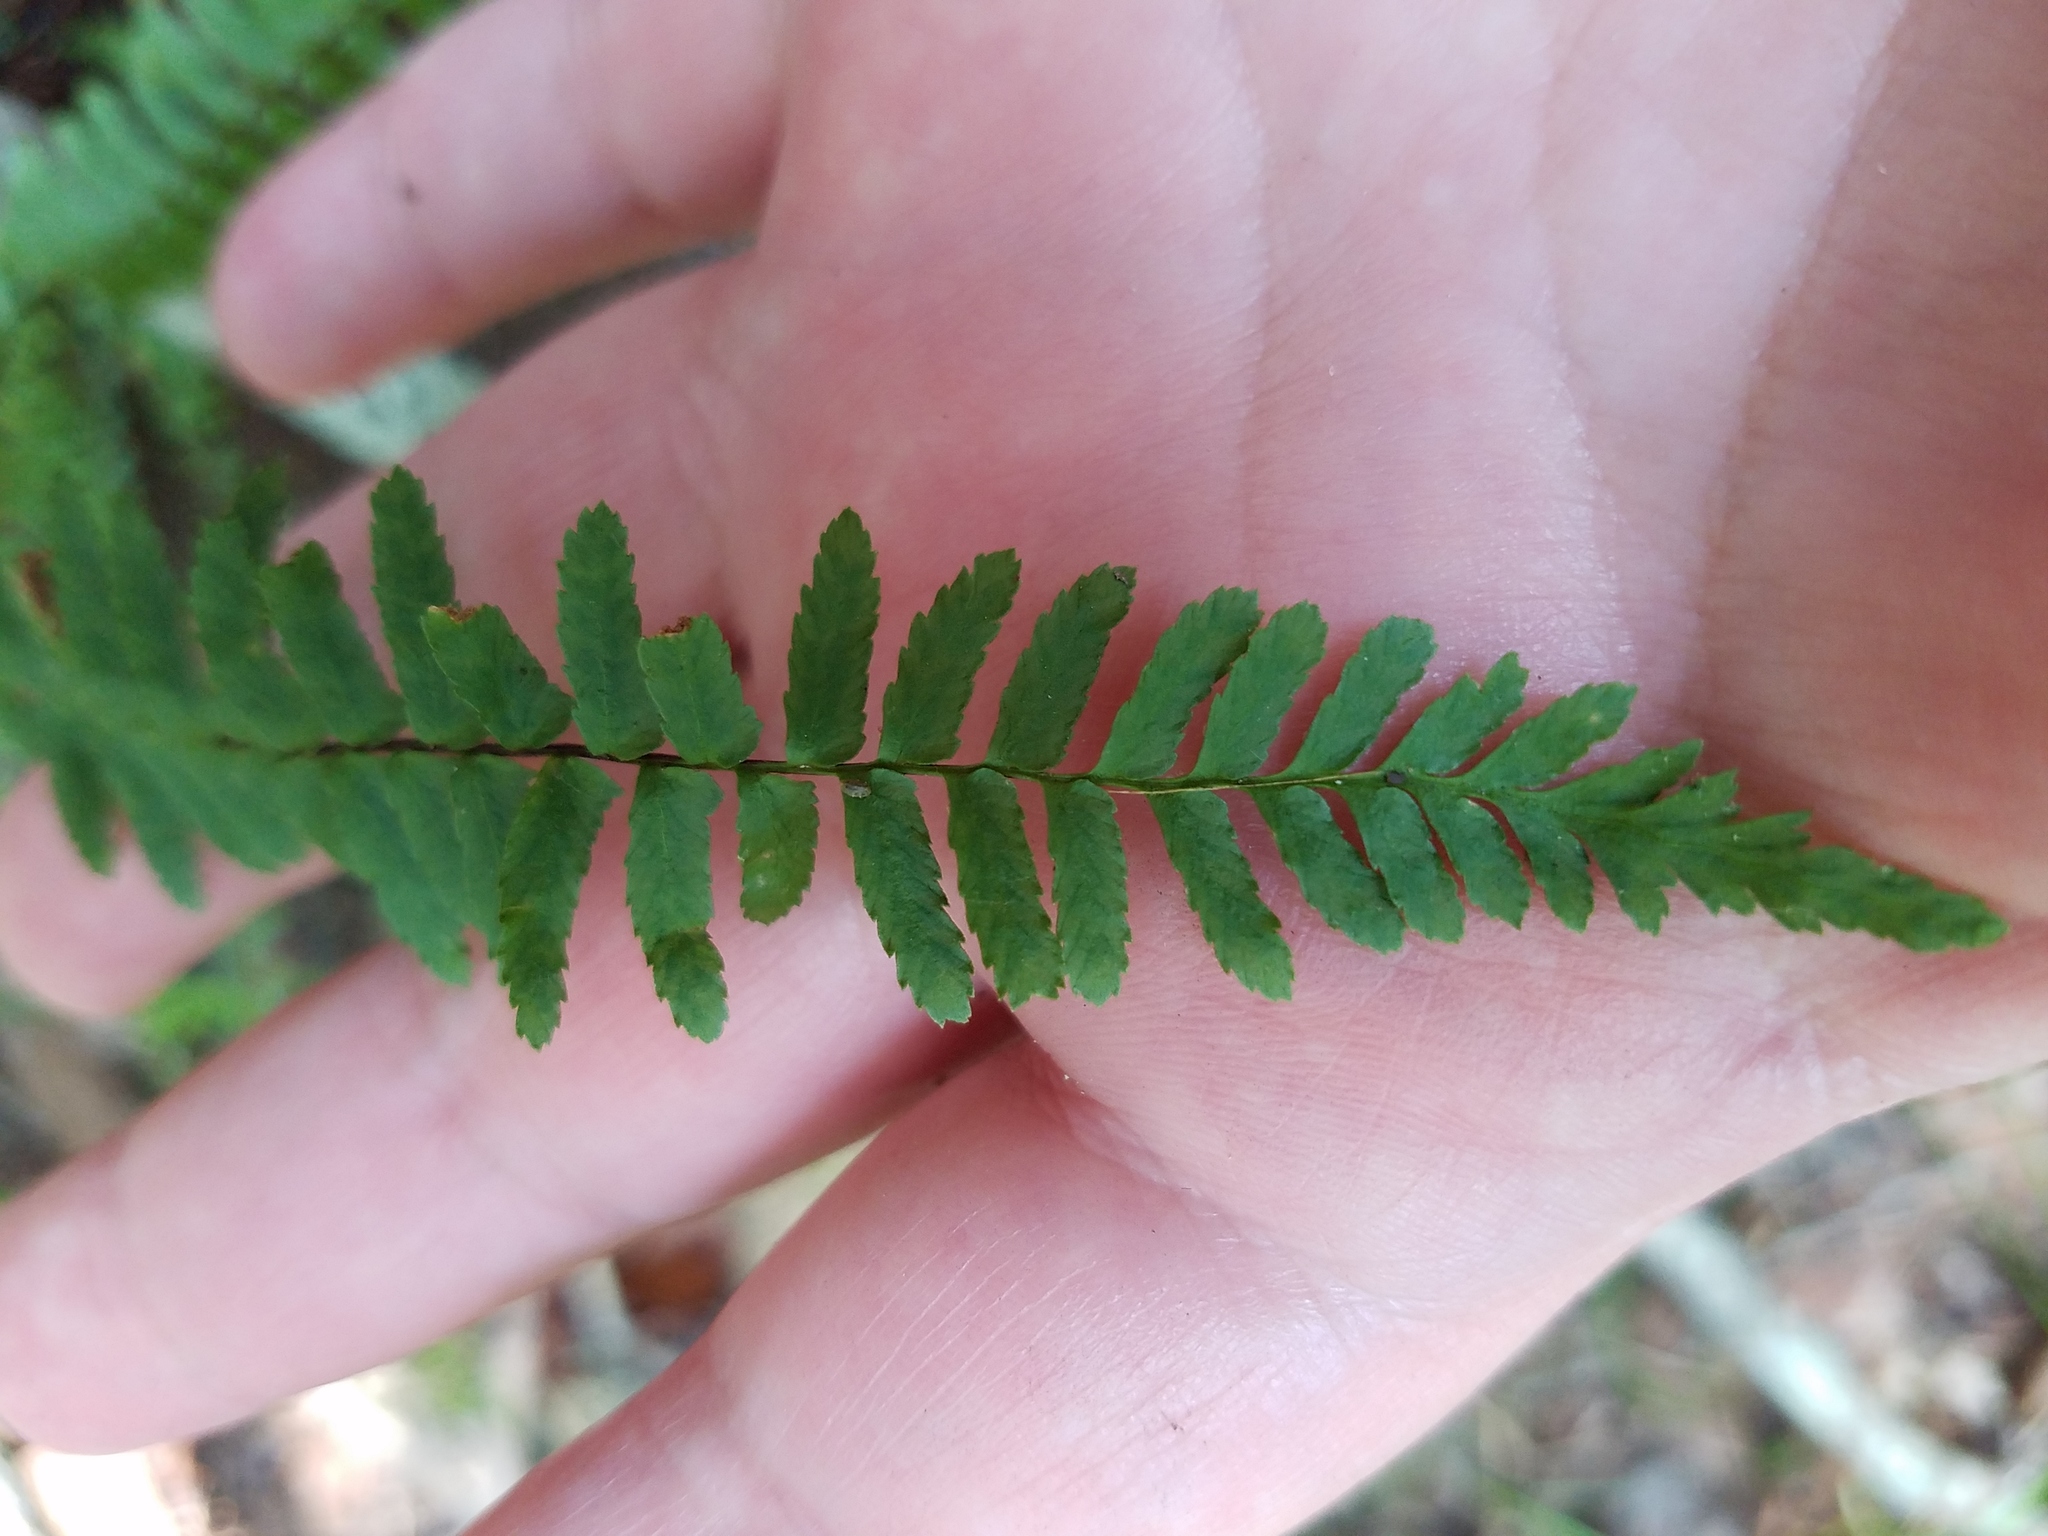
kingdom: Plantae
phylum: Tracheophyta
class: Polypodiopsida
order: Polypodiales
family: Aspleniaceae
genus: Asplenium
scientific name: Asplenium platyneuron
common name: Ebony spleenwort
